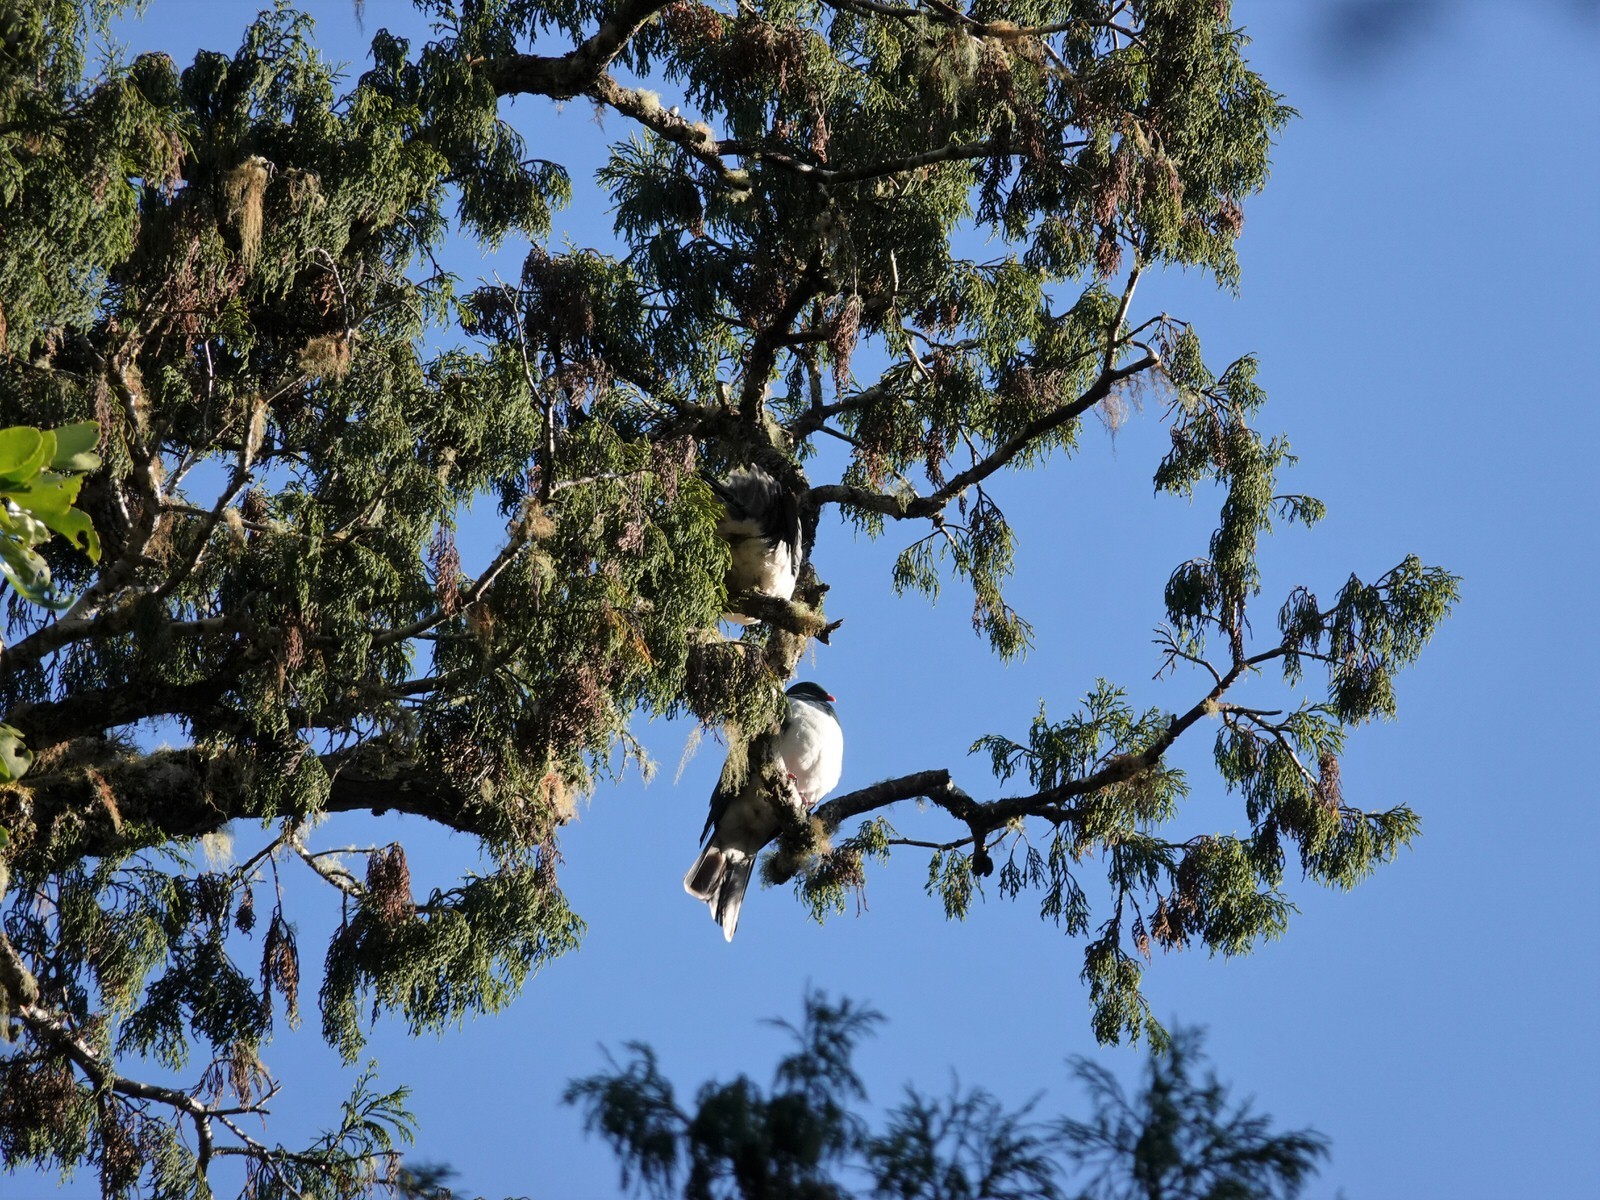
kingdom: Animalia
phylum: Chordata
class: Aves
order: Columbiformes
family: Columbidae
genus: Hemiphaga
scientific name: Hemiphaga novaeseelandiae
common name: New zealand pigeon
